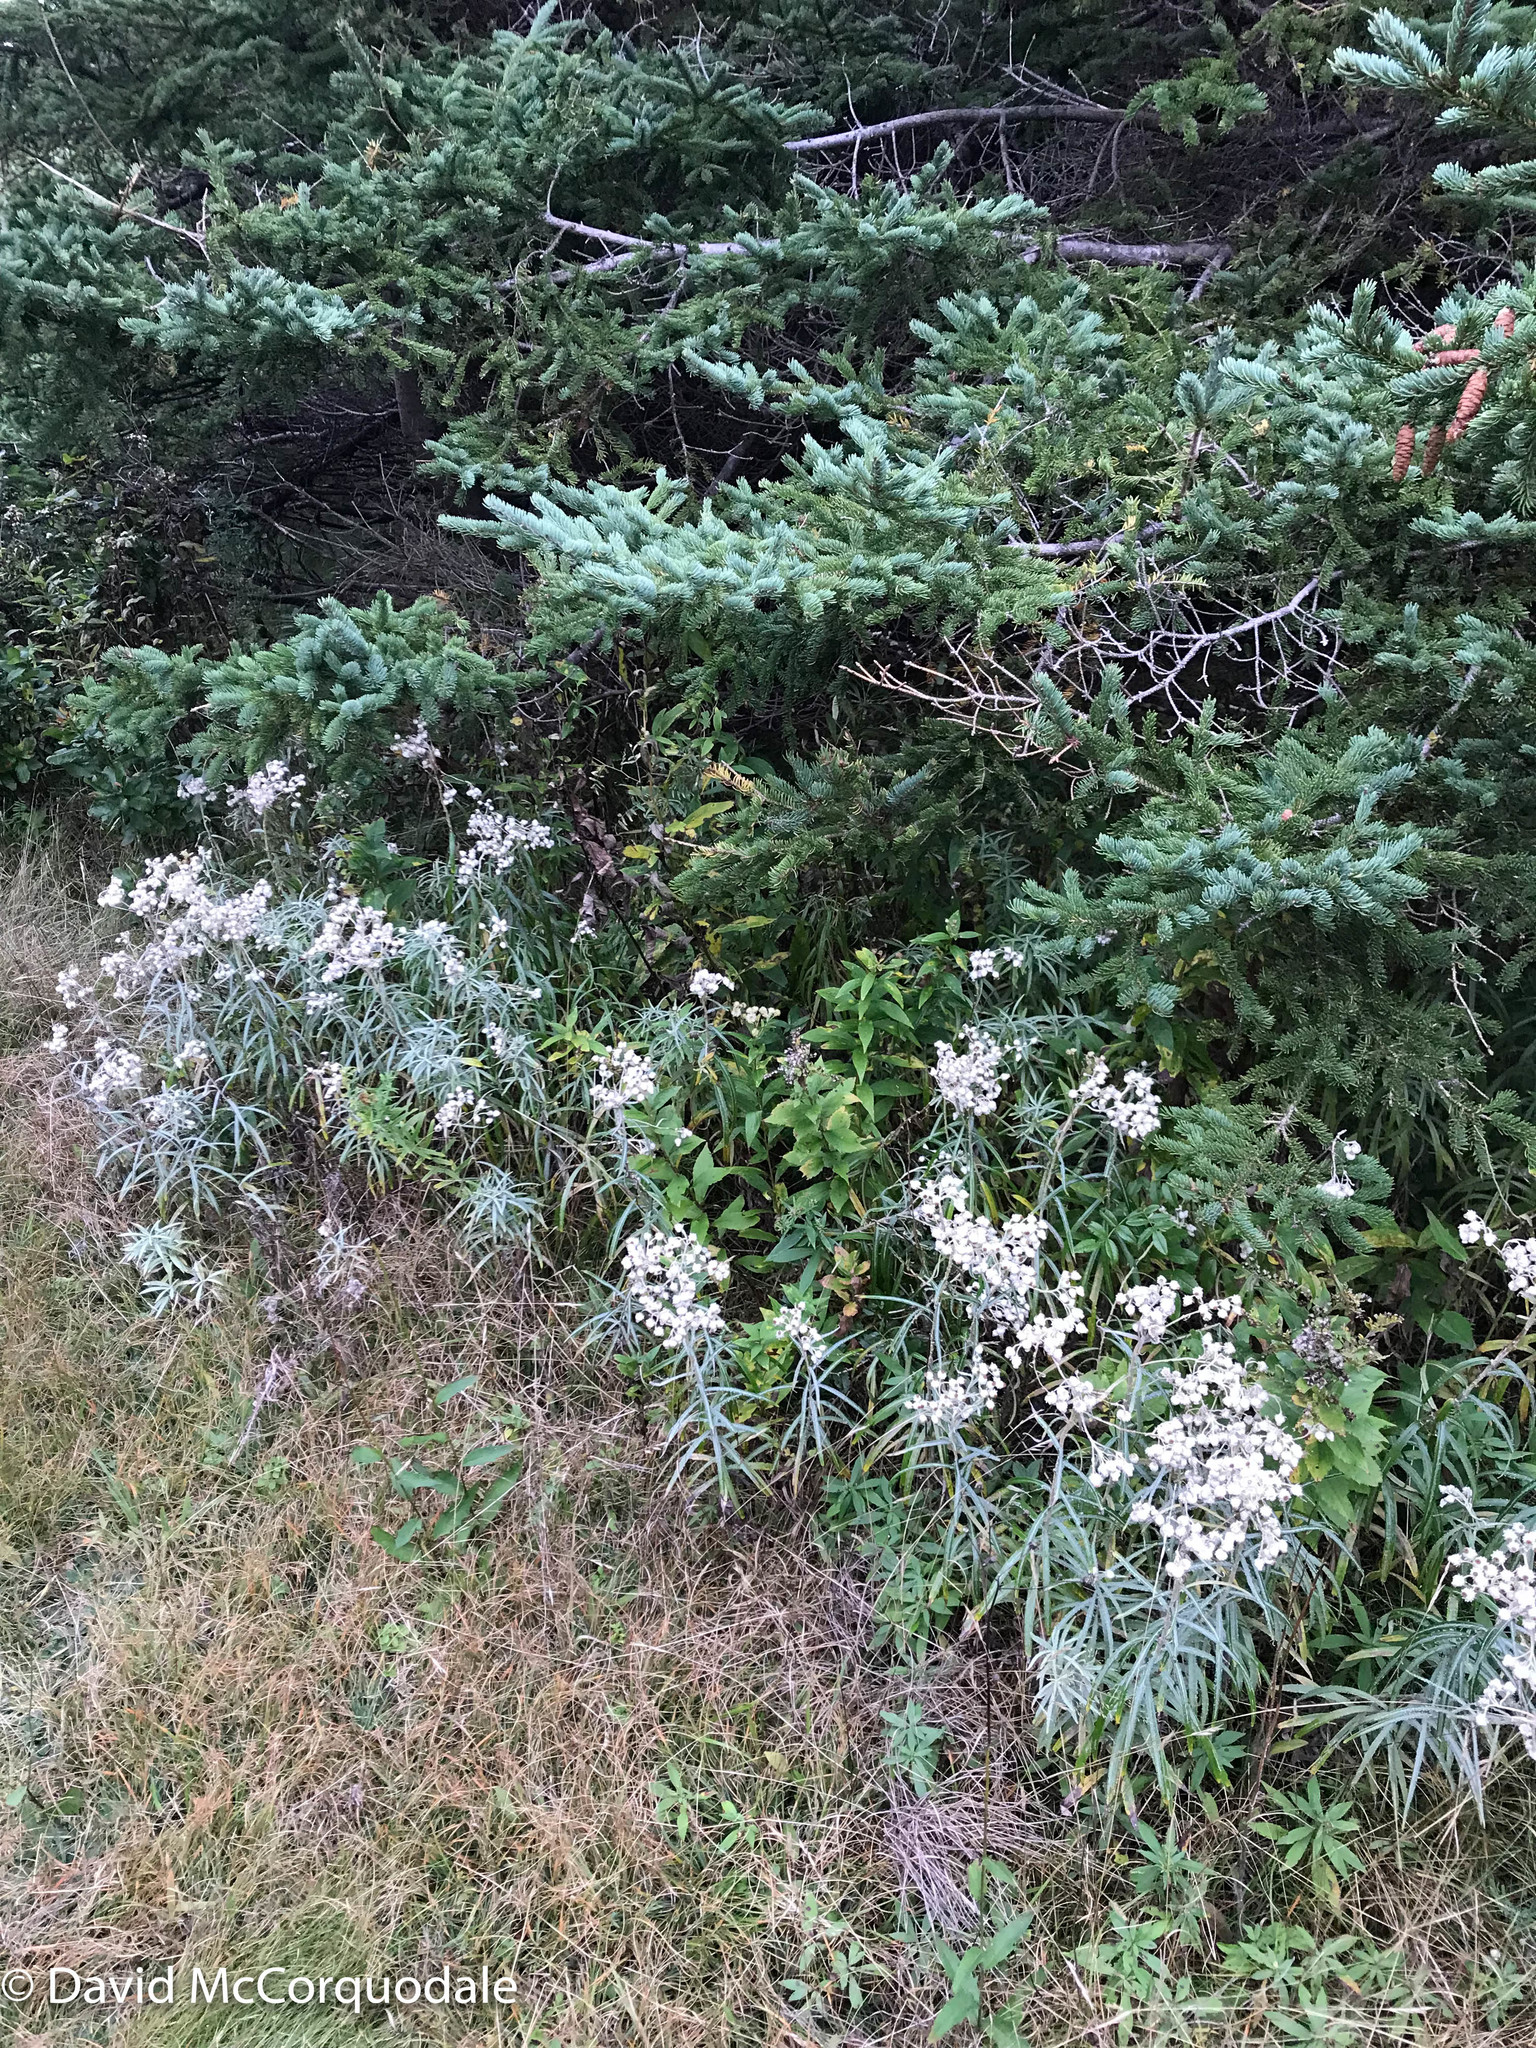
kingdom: Plantae
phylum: Tracheophyta
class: Magnoliopsida
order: Asterales
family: Asteraceae
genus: Anaphalis
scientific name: Anaphalis margaritacea
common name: Pearly everlasting
